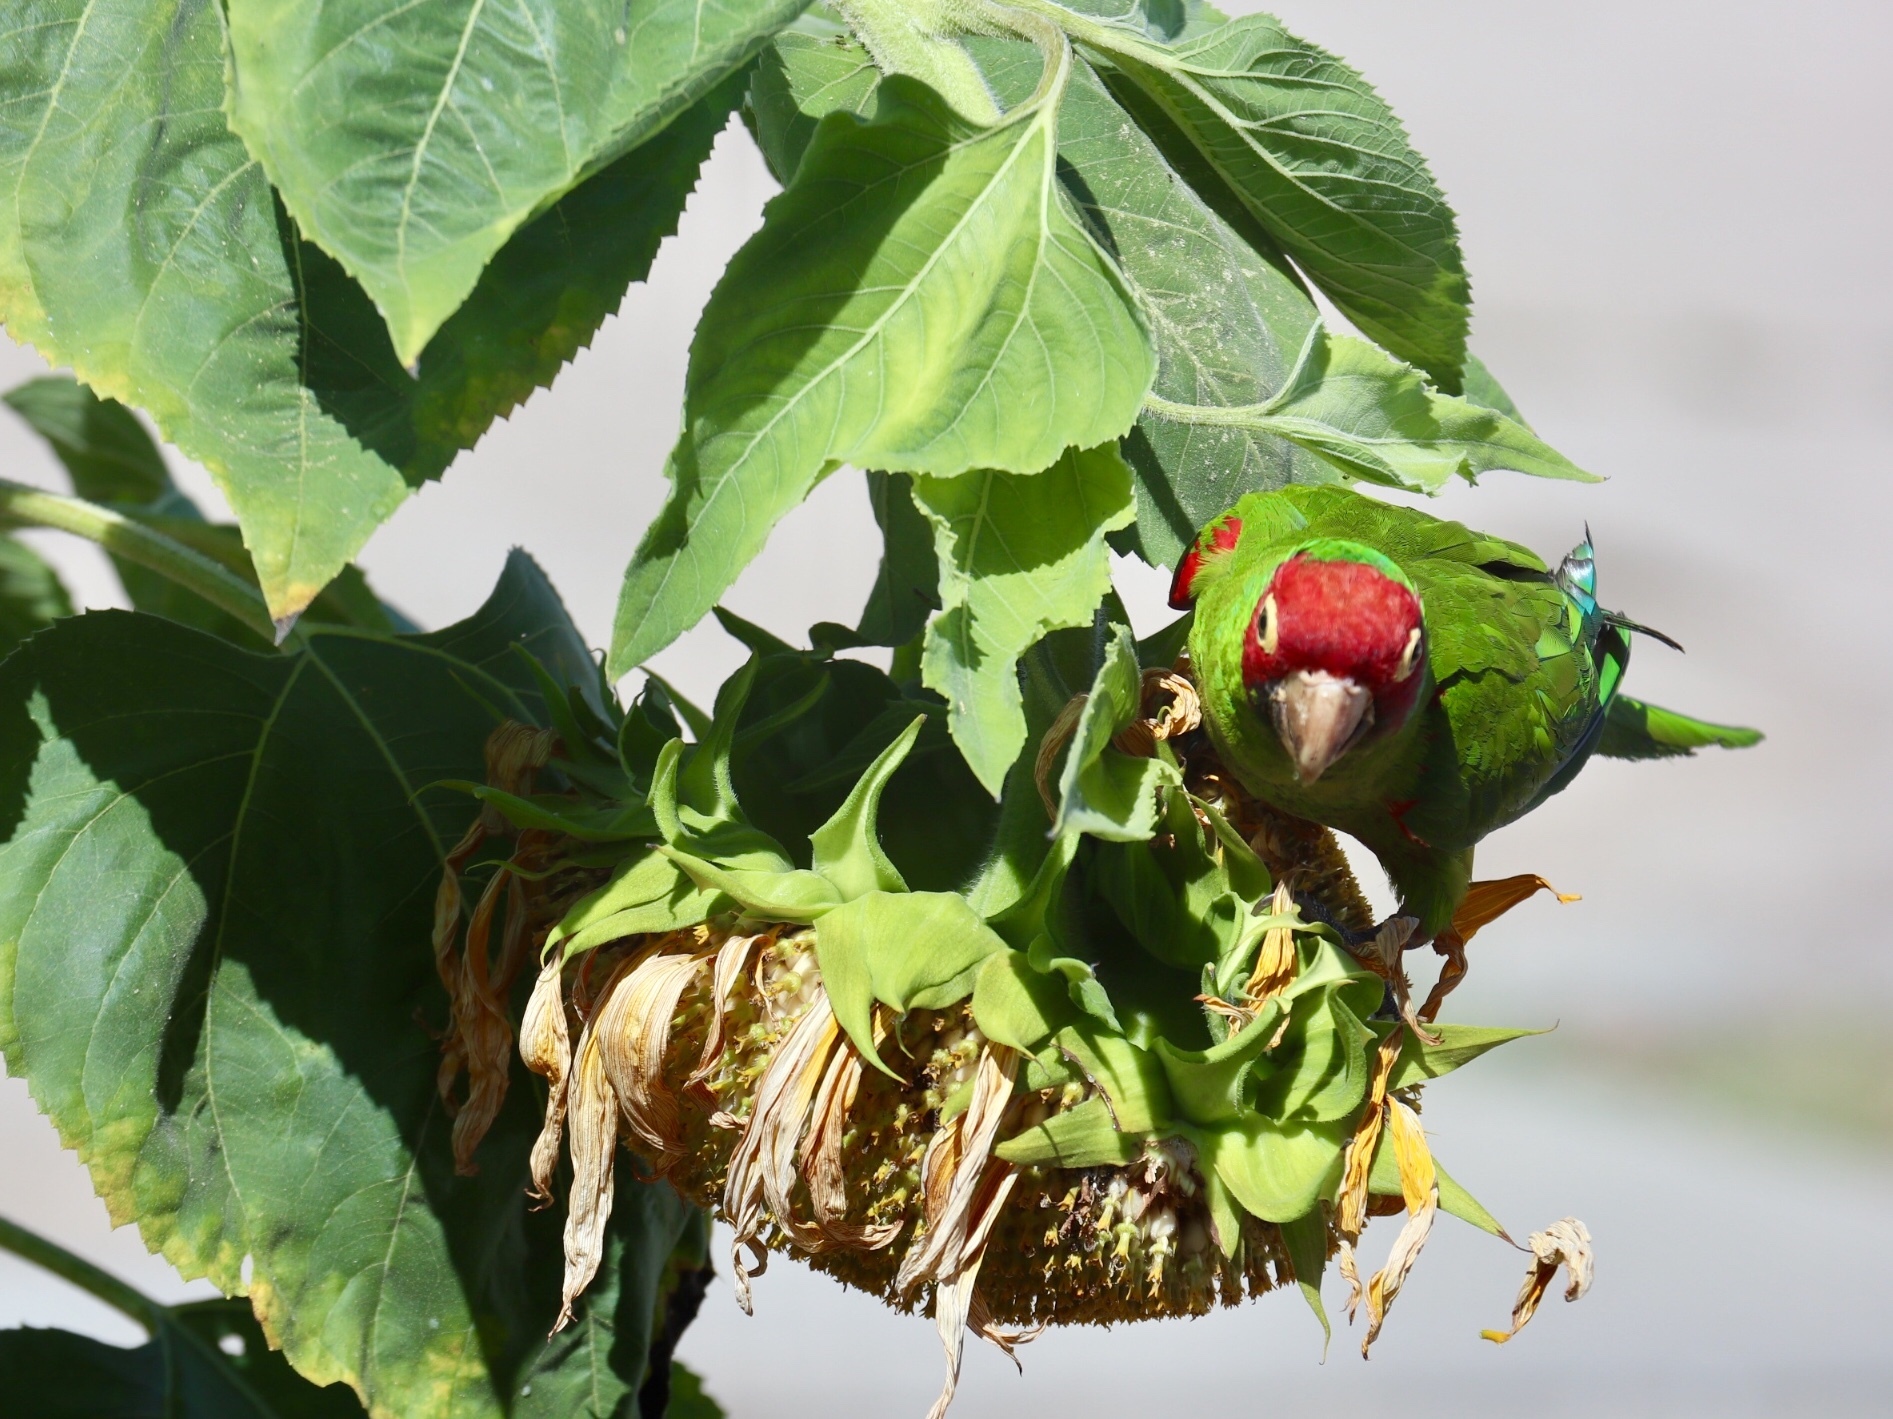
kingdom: Animalia
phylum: Chordata
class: Aves
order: Psittaciformes
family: Psittacidae
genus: Aratinga
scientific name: Aratinga erythrogenys
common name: Red-masked parakeet
